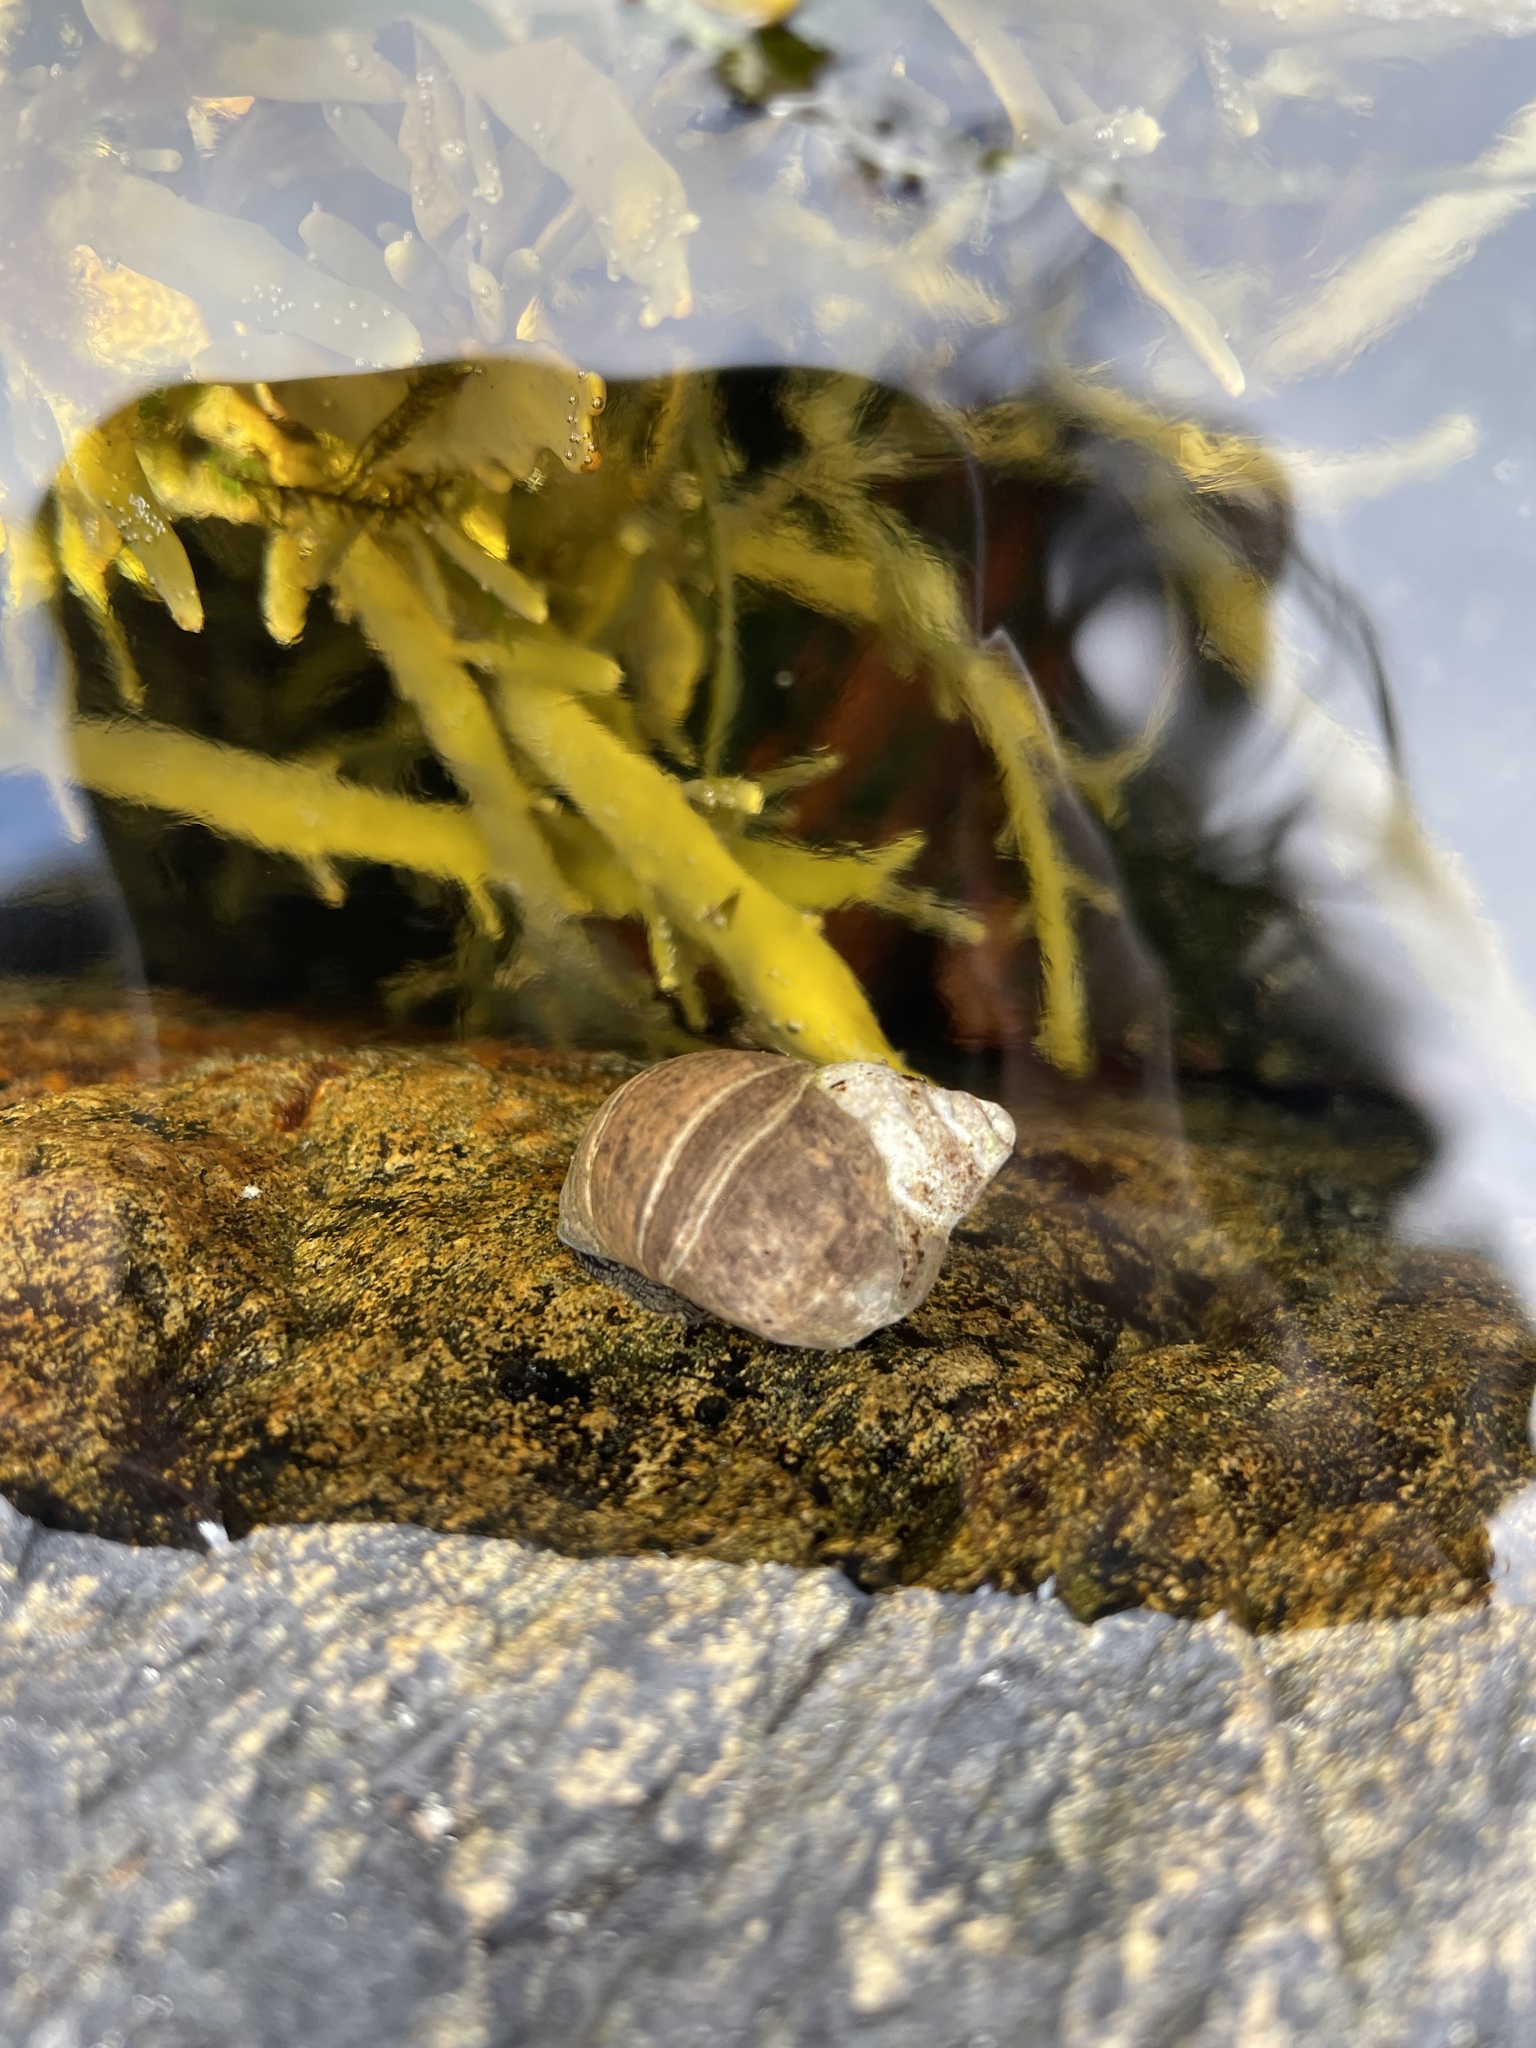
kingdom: Animalia
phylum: Mollusca
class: Gastropoda
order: Littorinimorpha
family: Littorinidae
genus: Littorina
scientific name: Littorina littorea
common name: Common periwinkle
